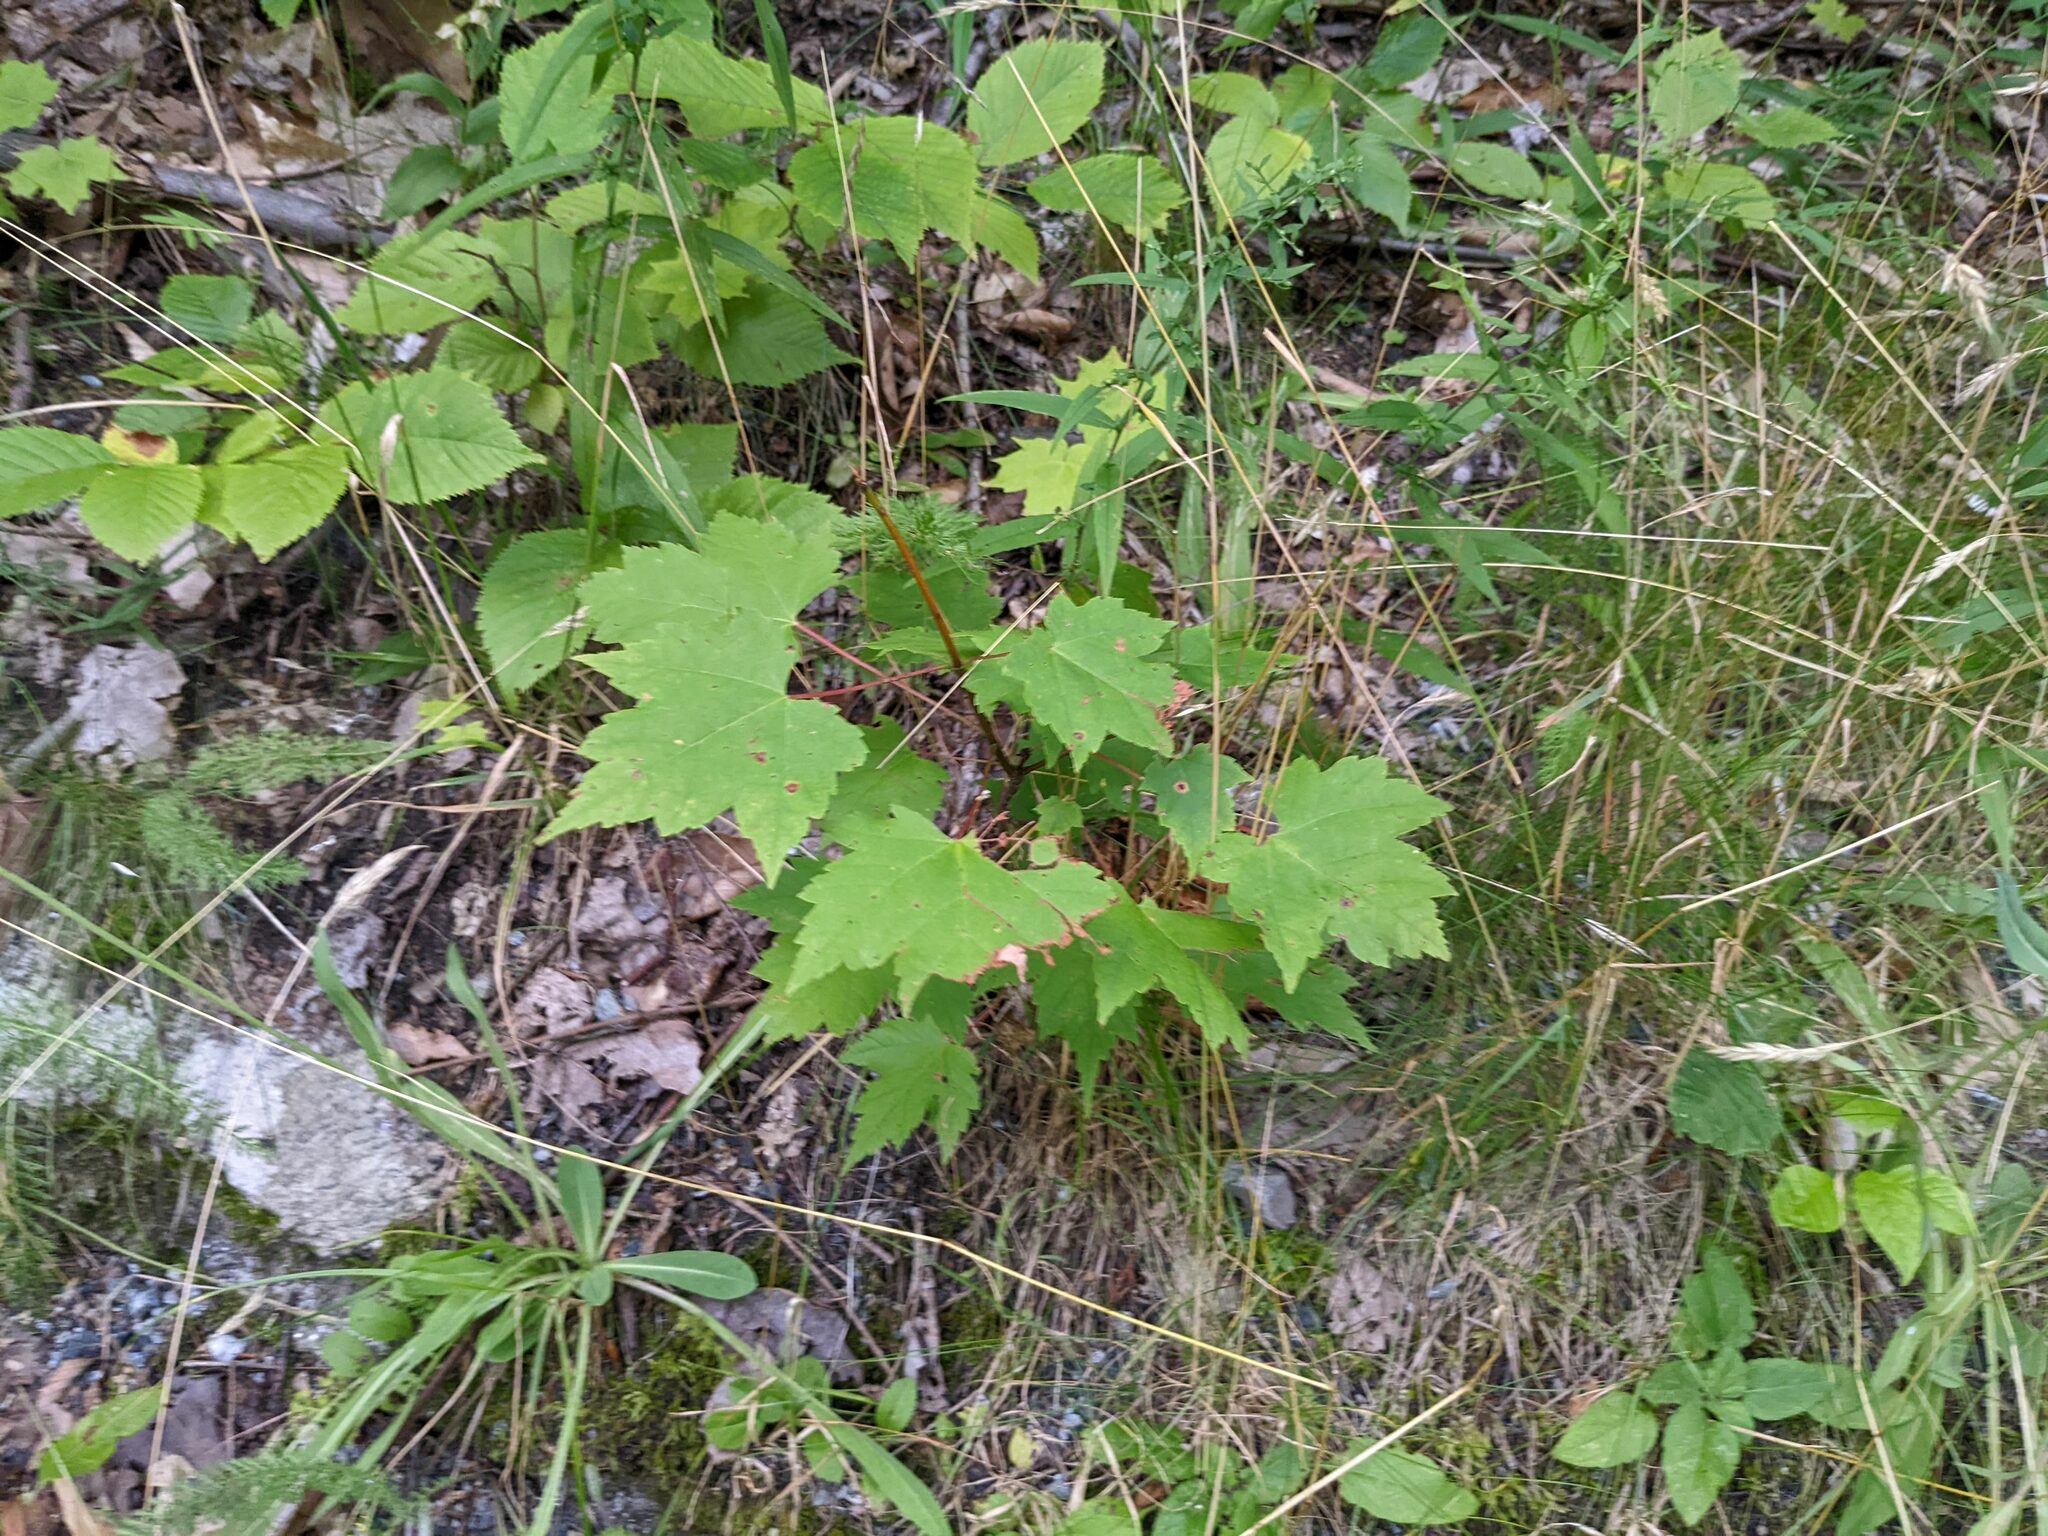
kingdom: Plantae
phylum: Tracheophyta
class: Magnoliopsida
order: Sapindales
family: Sapindaceae
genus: Acer
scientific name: Acer rubrum
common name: Red maple
